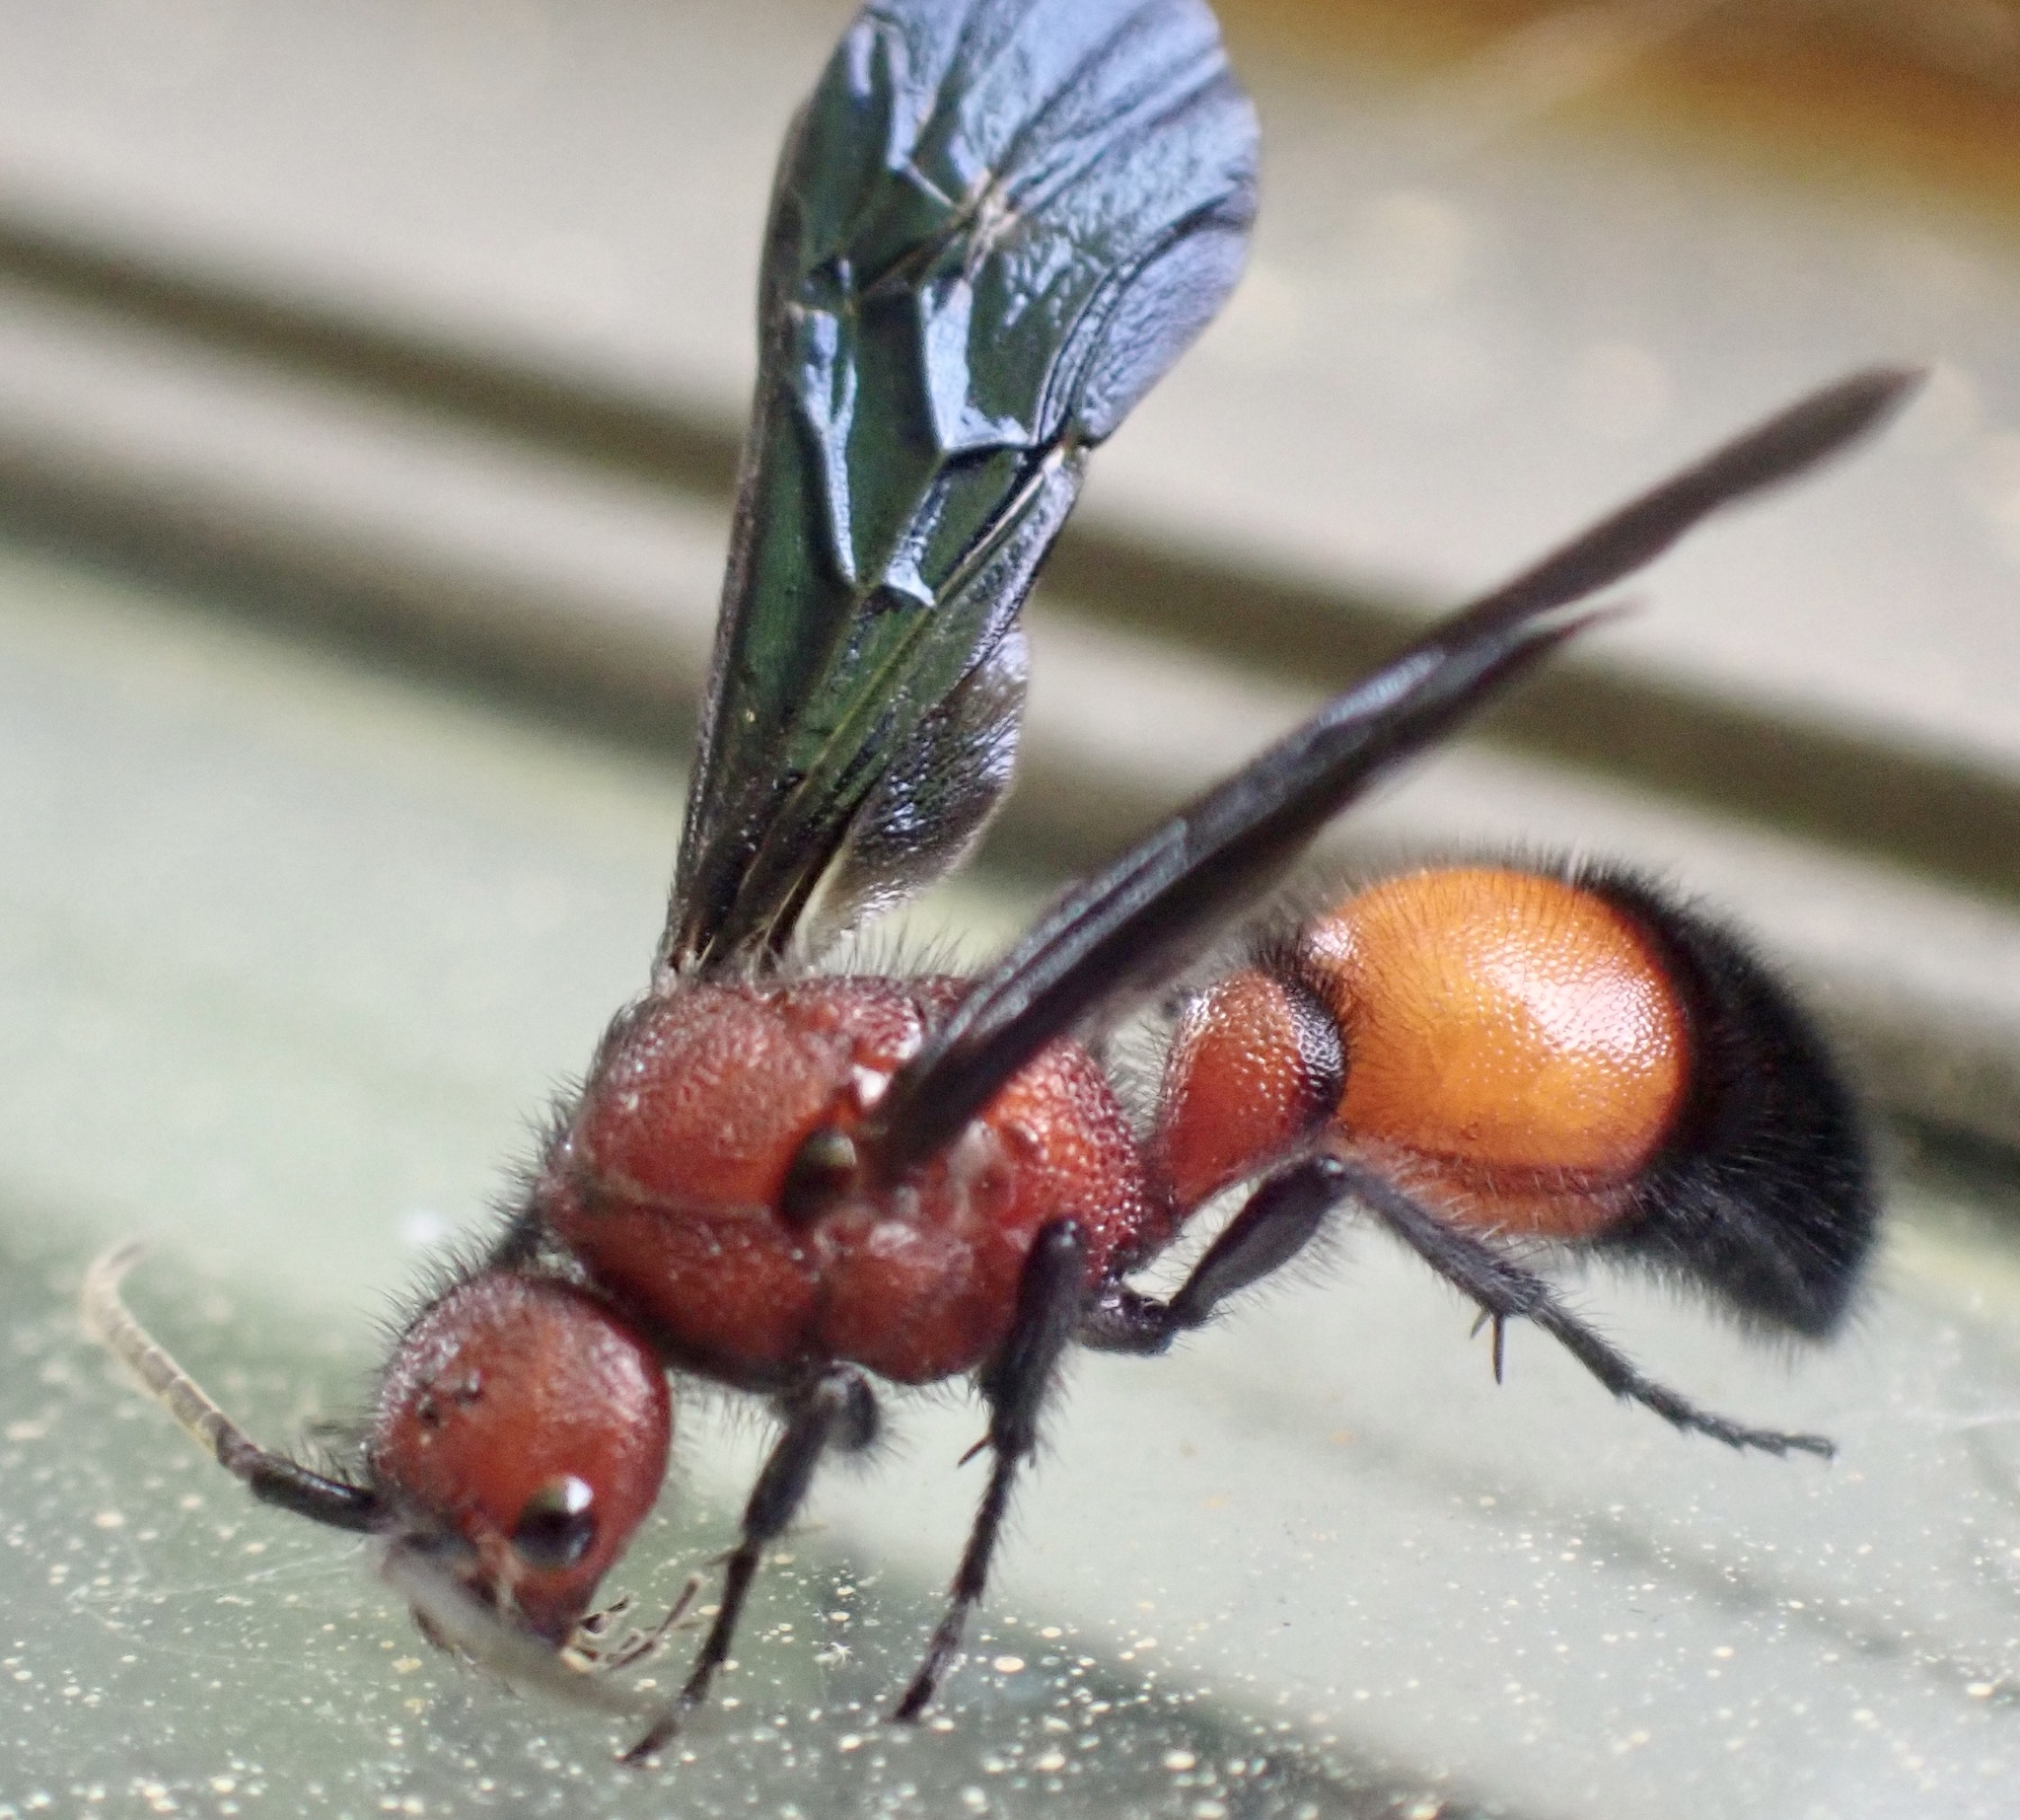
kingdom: Animalia
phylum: Arthropoda
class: Insecta
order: Hymenoptera
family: Mutillidae
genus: Sphaeropthalma
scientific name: Sphaeropthalma
